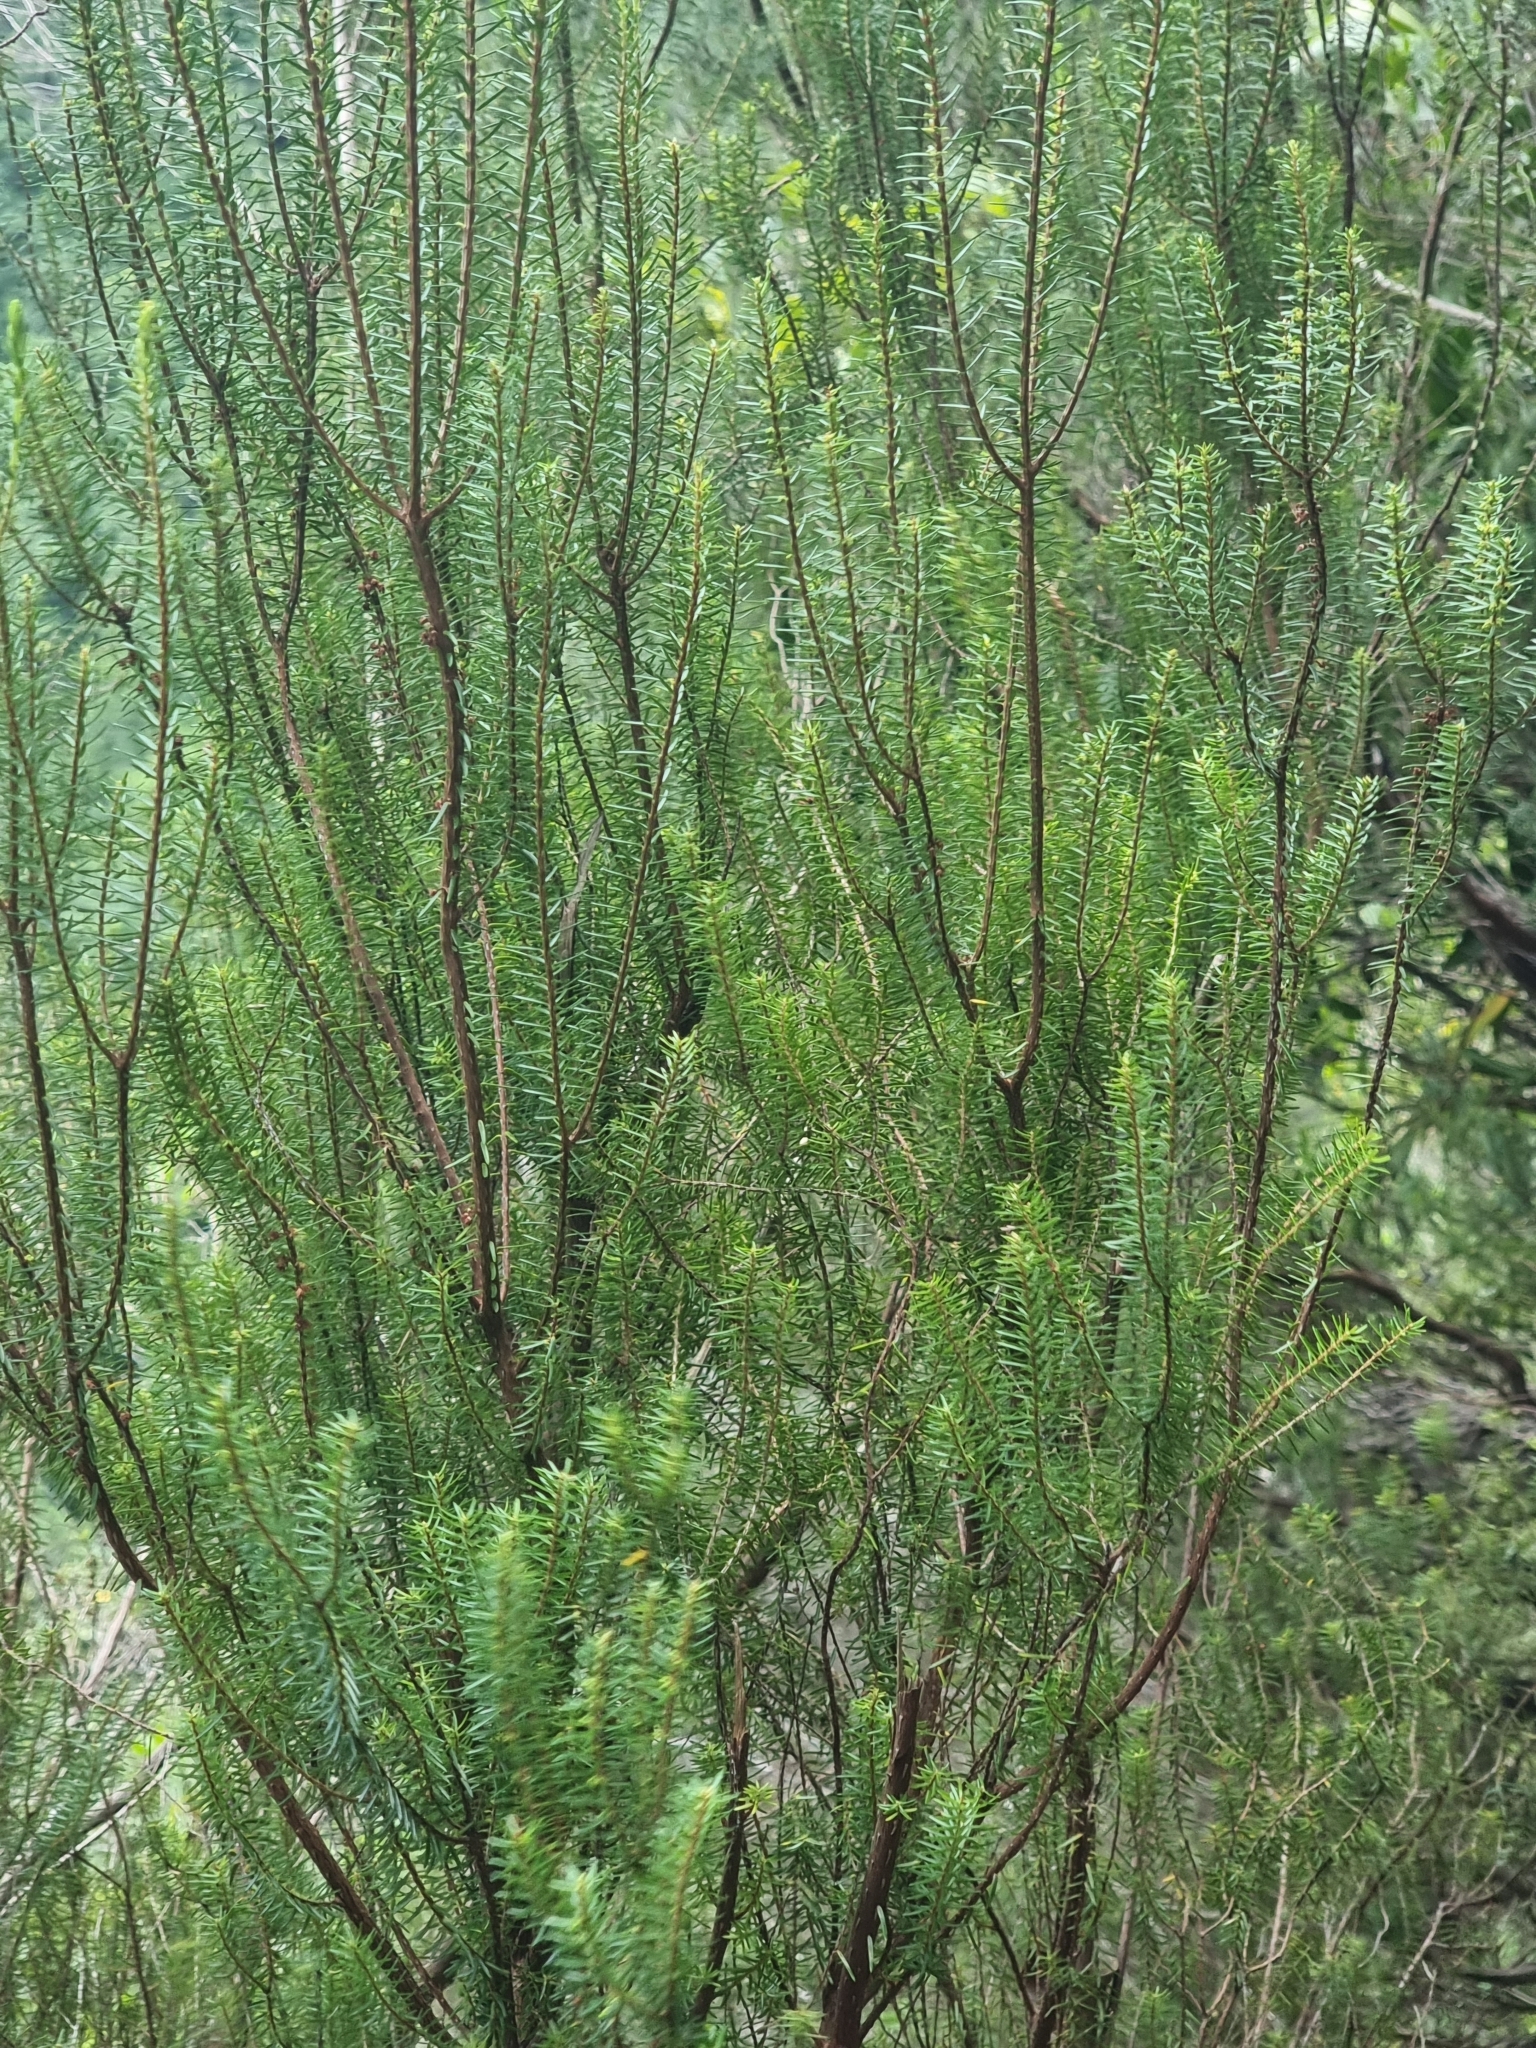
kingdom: Plantae
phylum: Tracheophyta
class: Magnoliopsida
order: Ericales
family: Ericaceae
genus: Erica
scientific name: Erica platycodon
